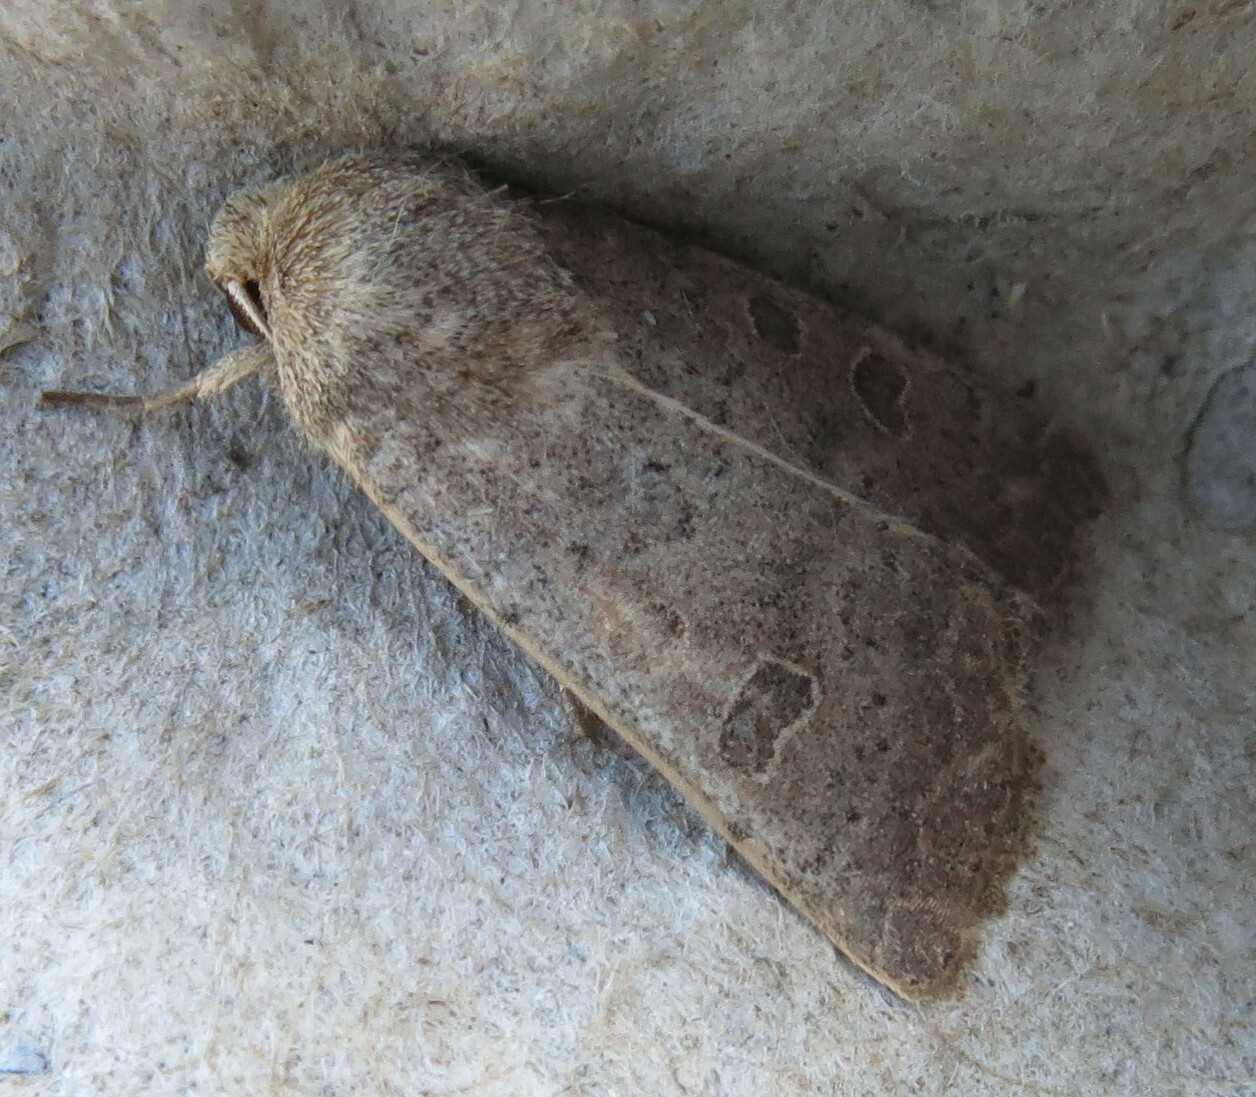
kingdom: Animalia
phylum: Arthropoda
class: Insecta
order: Lepidoptera
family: Noctuidae
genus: Hoplodrina
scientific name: Hoplodrina ambigua
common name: Vine's rustic
